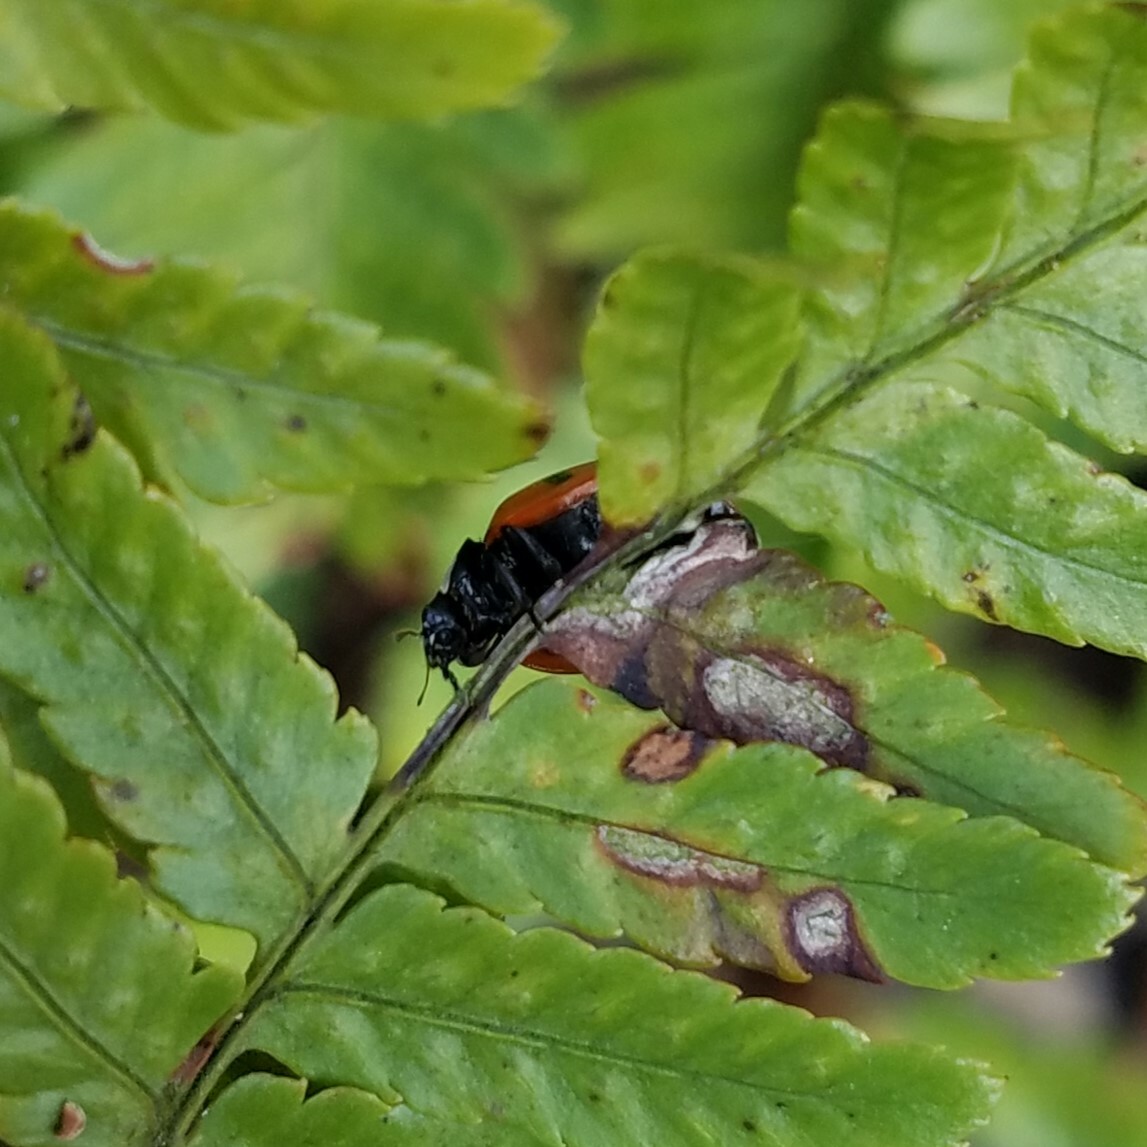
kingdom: Animalia
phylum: Arthropoda
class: Insecta
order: Coleoptera
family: Coccinellidae
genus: Coccinella
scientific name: Coccinella septempunctata
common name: Sevenspotted lady beetle
